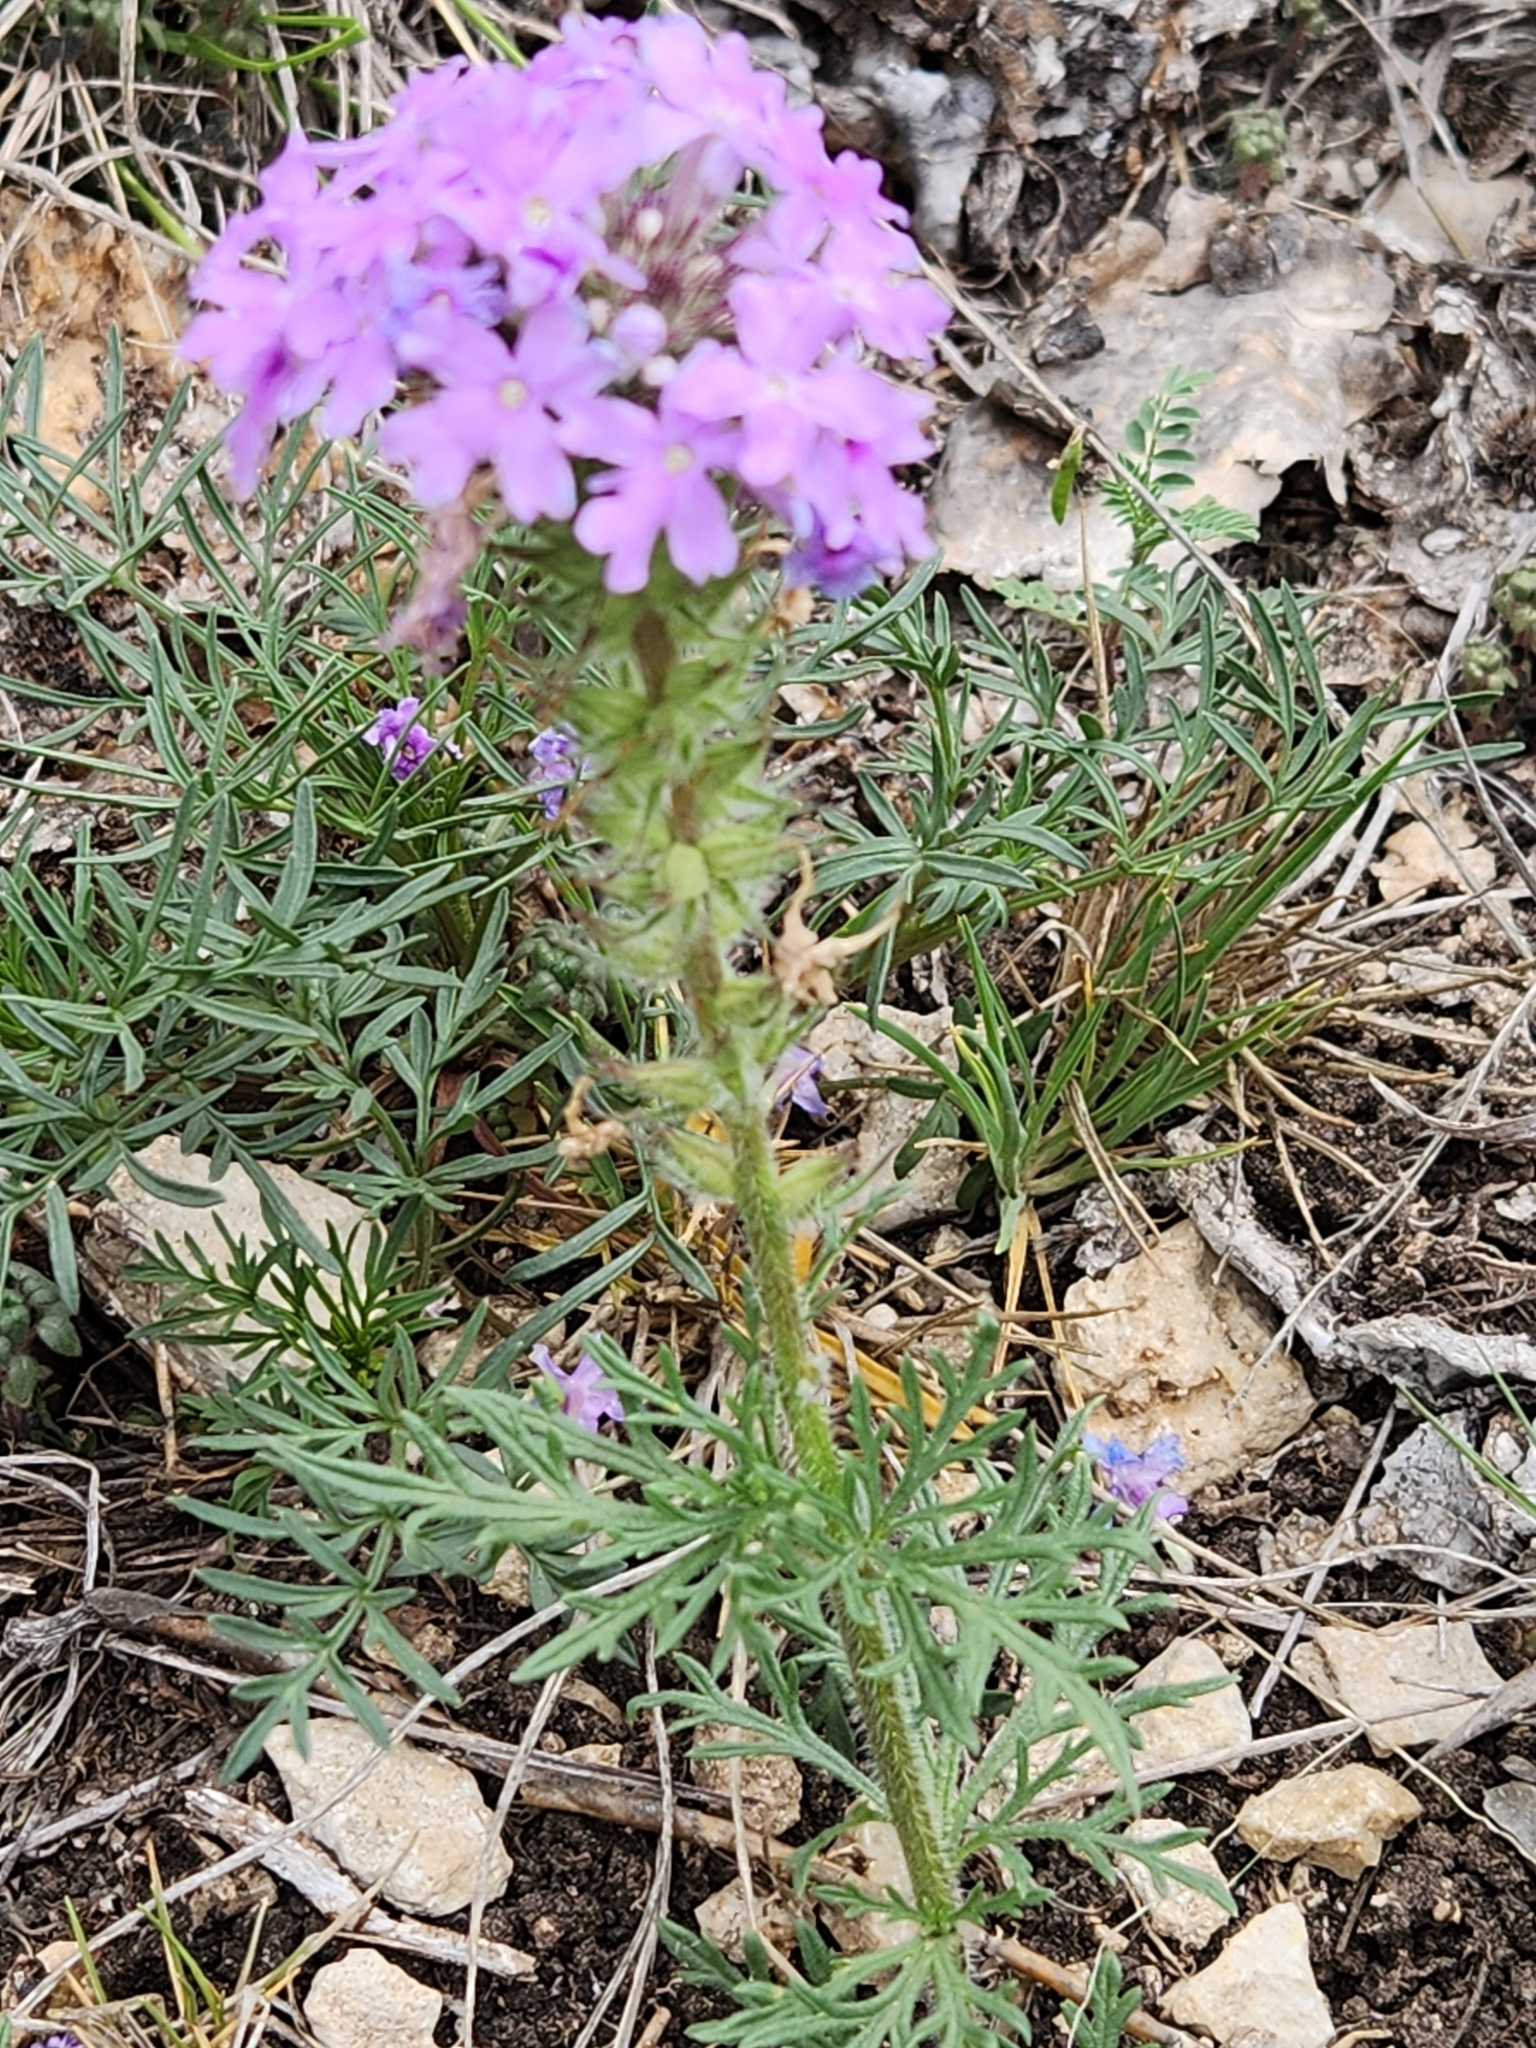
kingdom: Plantae
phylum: Tracheophyta
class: Magnoliopsida
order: Lamiales
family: Verbenaceae
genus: Verbena
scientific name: Verbena bipinnatifida
